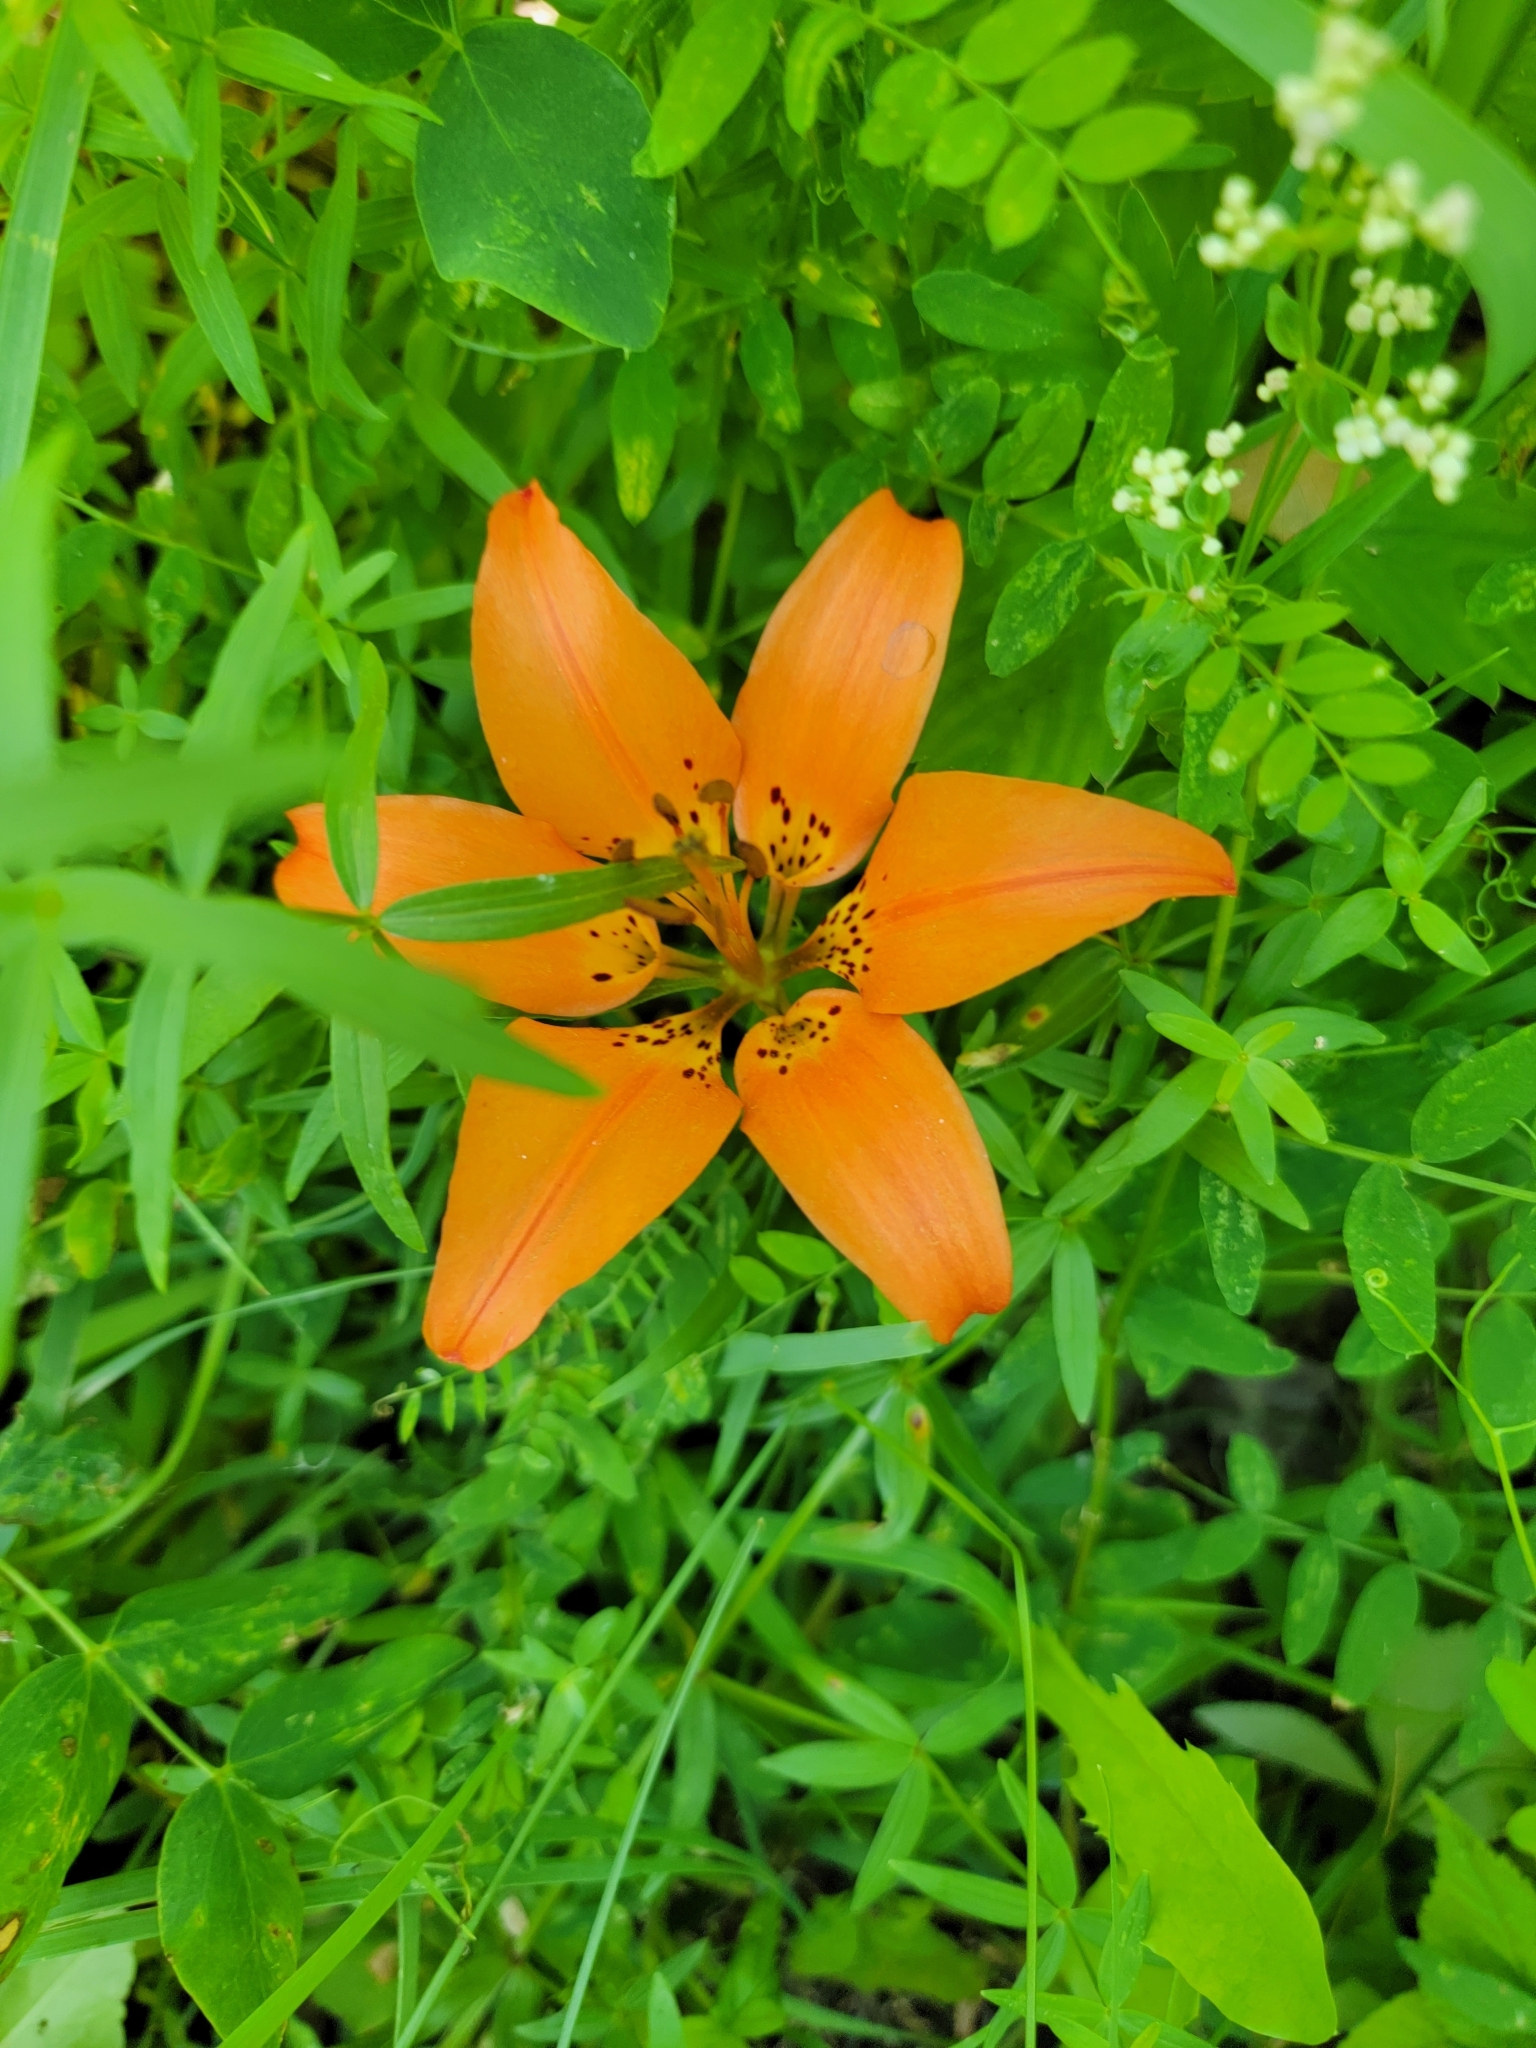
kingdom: Plantae
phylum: Tracheophyta
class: Liliopsida
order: Liliales
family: Liliaceae
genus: Lilium
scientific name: Lilium philadelphicum
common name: Red lily
